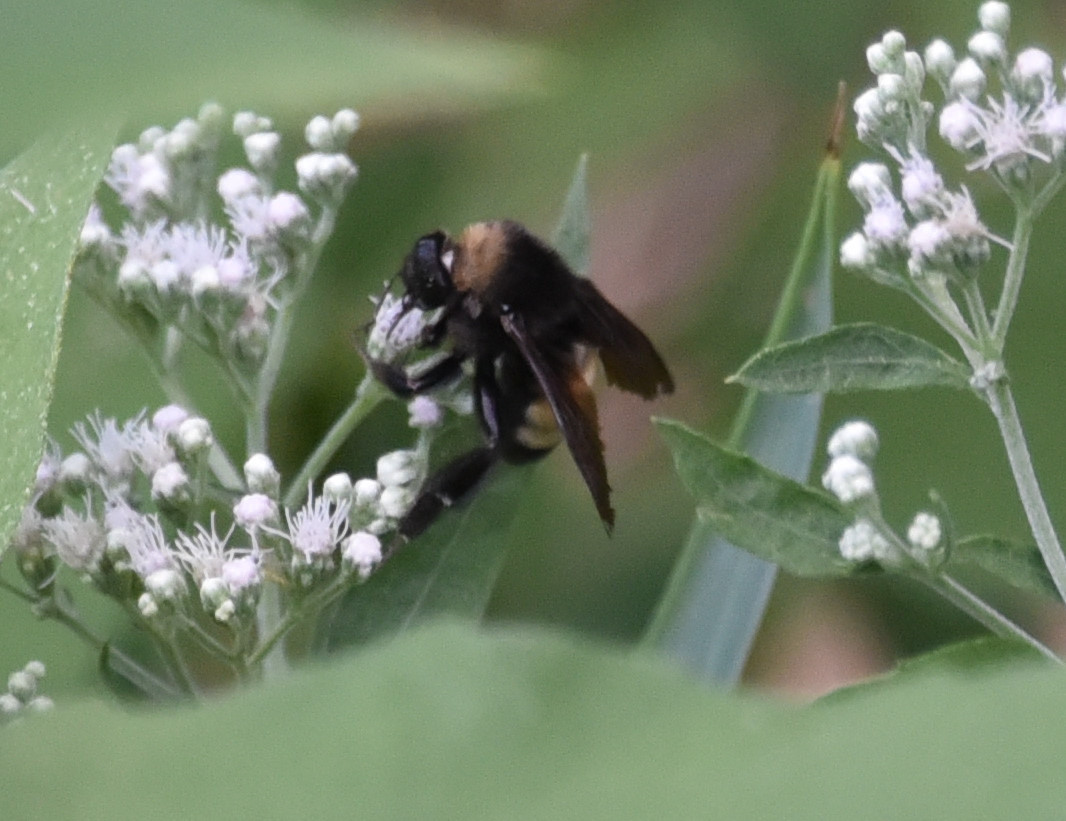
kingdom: Animalia
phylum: Arthropoda
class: Insecta
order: Hymenoptera
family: Apidae
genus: Bombus
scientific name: Bombus pensylvanicus
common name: Bumble bee
